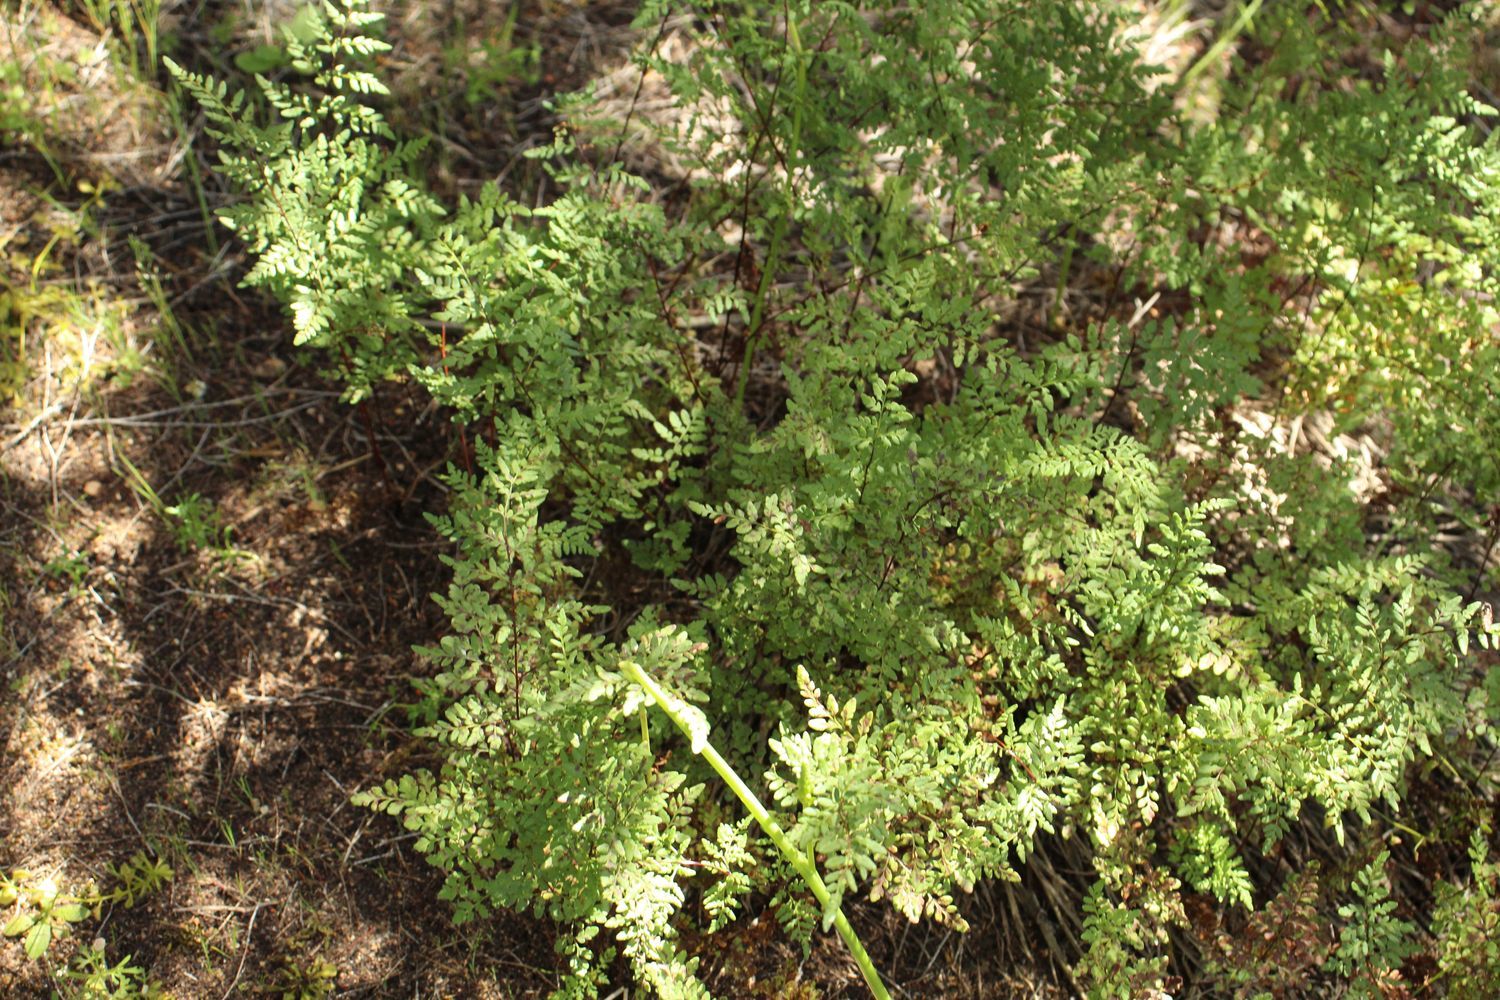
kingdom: Plantae
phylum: Tracheophyta
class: Polypodiopsida
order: Polypodiales
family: Pteridaceae
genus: Cheilanthes
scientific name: Cheilanthes austrotenuifolia
